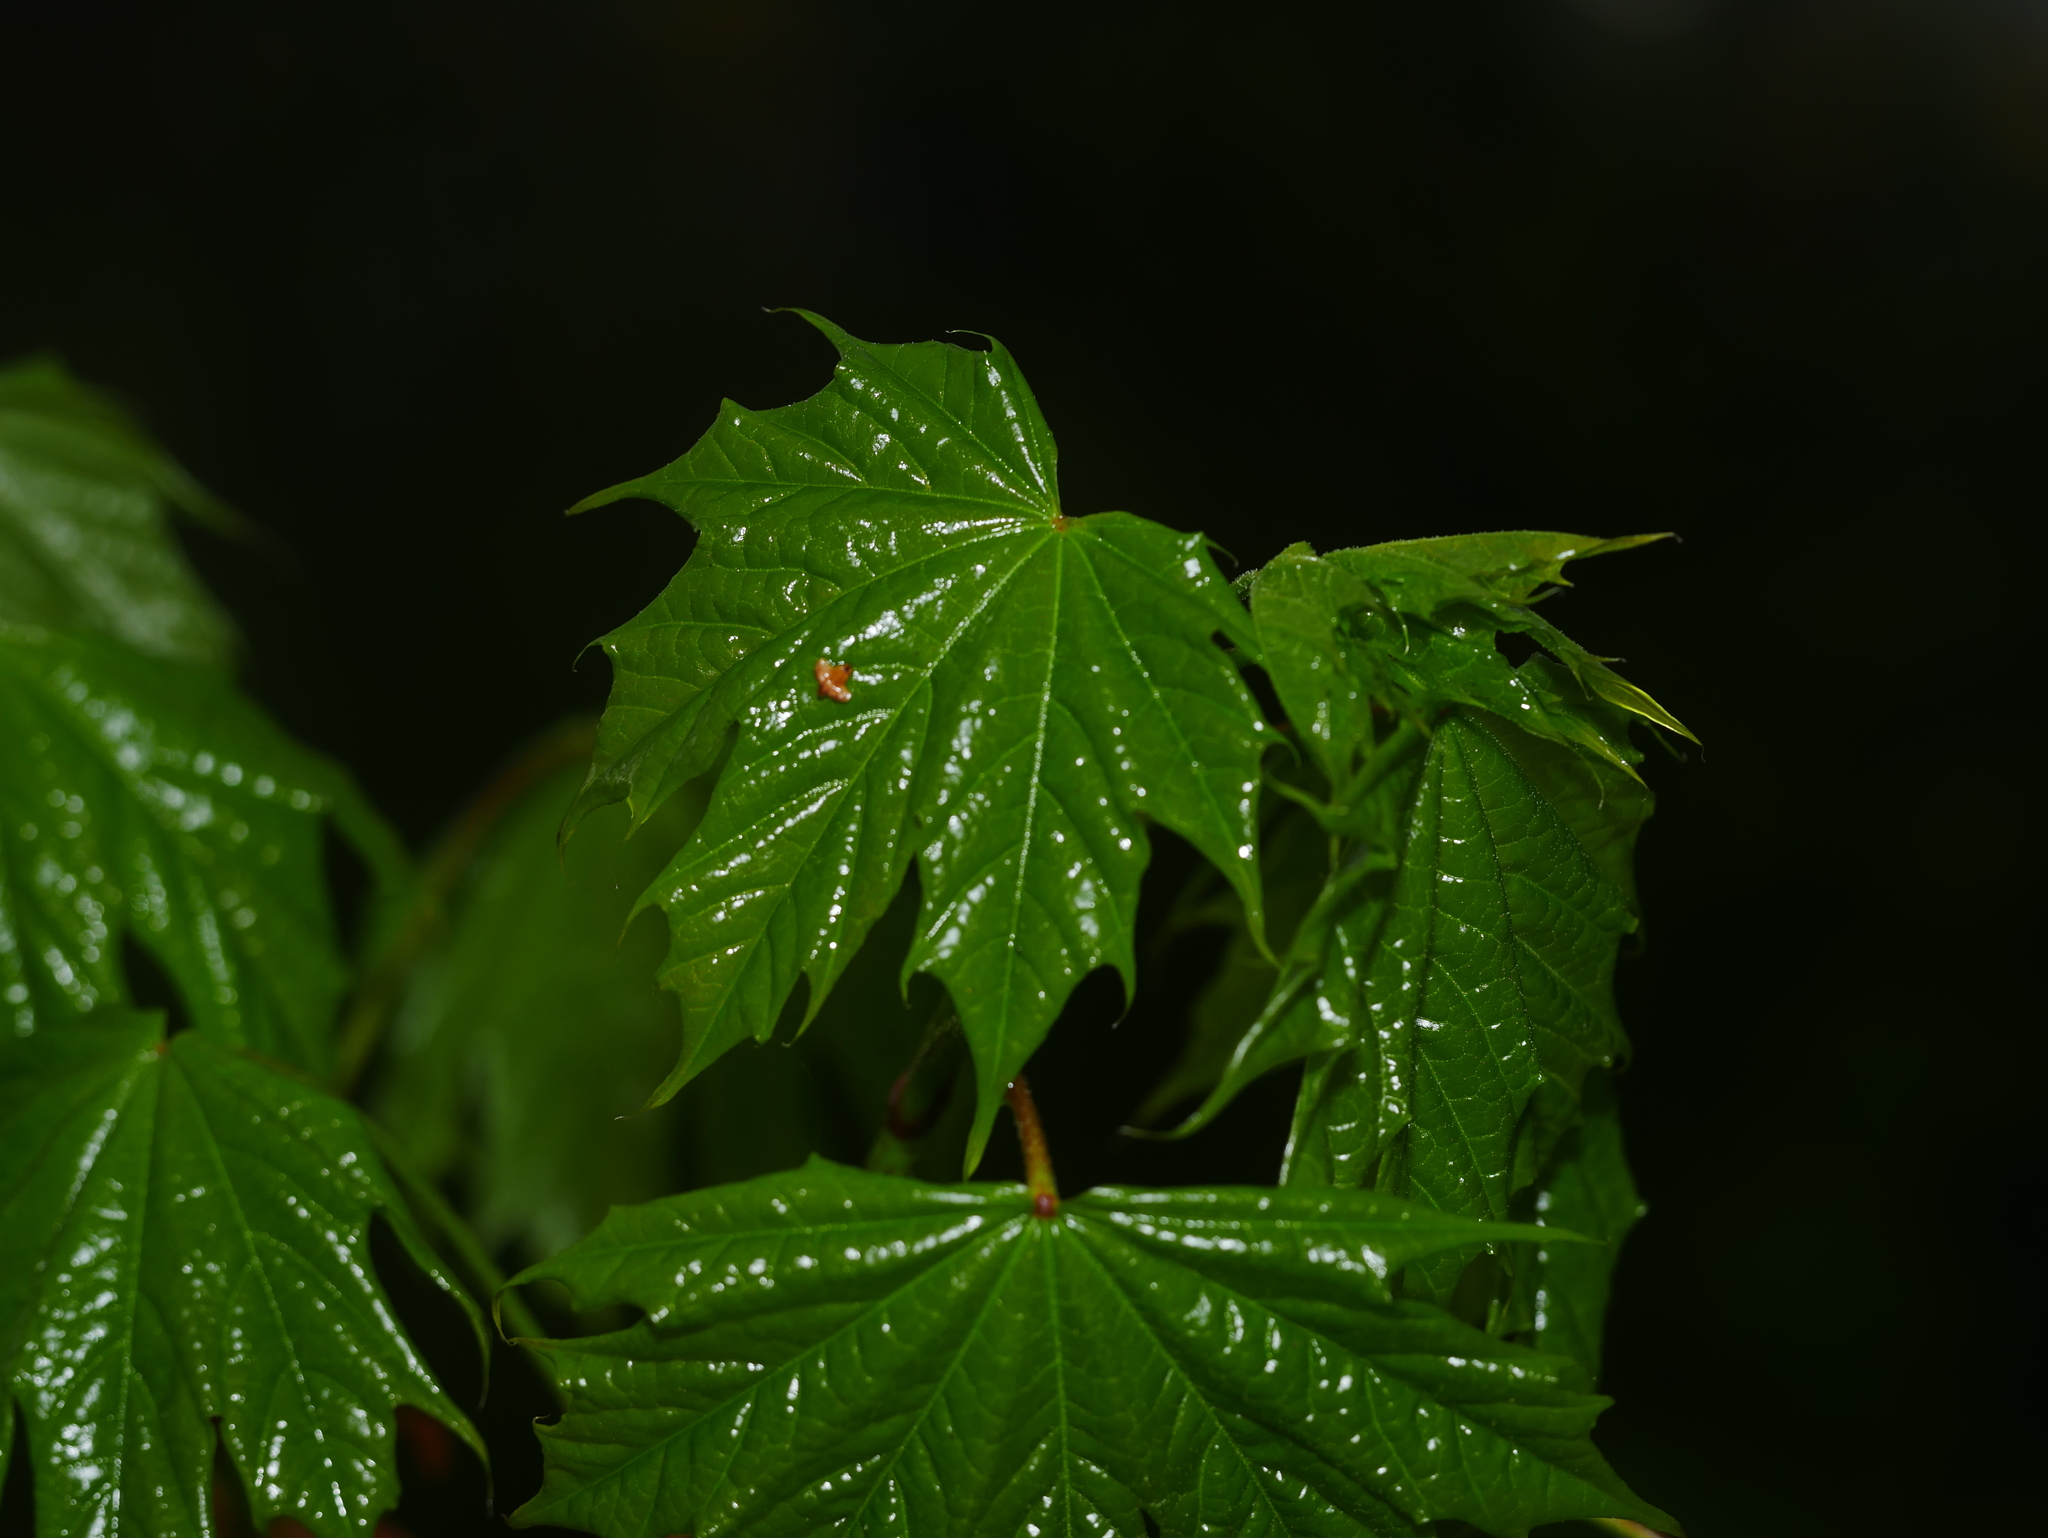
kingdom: Plantae
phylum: Tracheophyta
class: Magnoliopsida
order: Sapindales
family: Sapindaceae
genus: Acer
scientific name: Acer platanoides
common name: Norway maple
